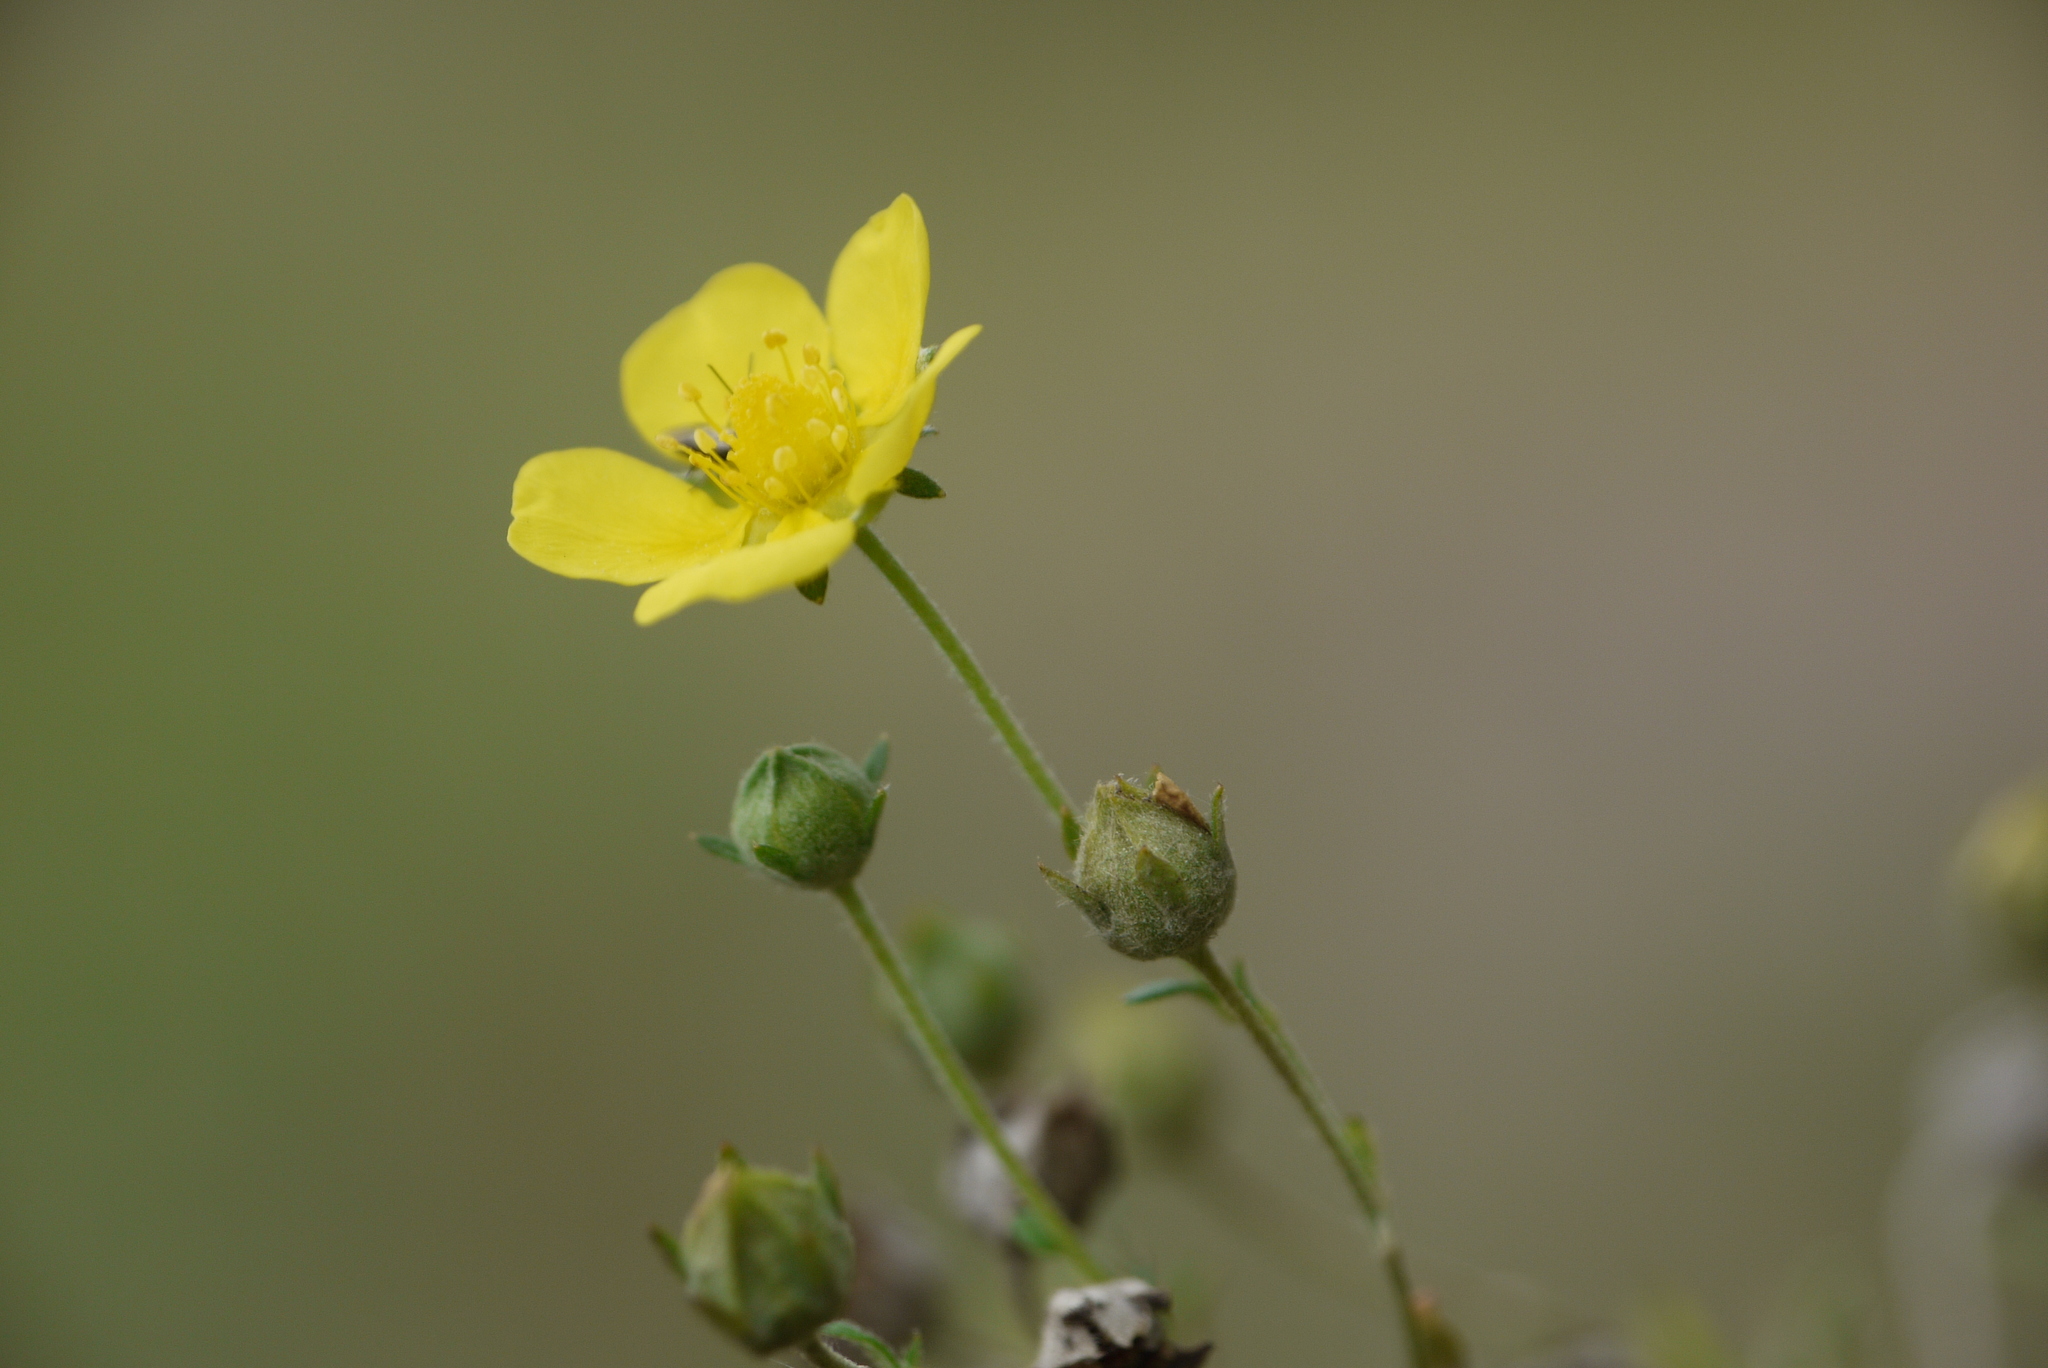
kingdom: Plantae
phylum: Tracheophyta
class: Magnoliopsida
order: Rosales
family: Rosaceae
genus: Potentilla
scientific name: Potentilla argentea
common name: Hoary cinquefoil
